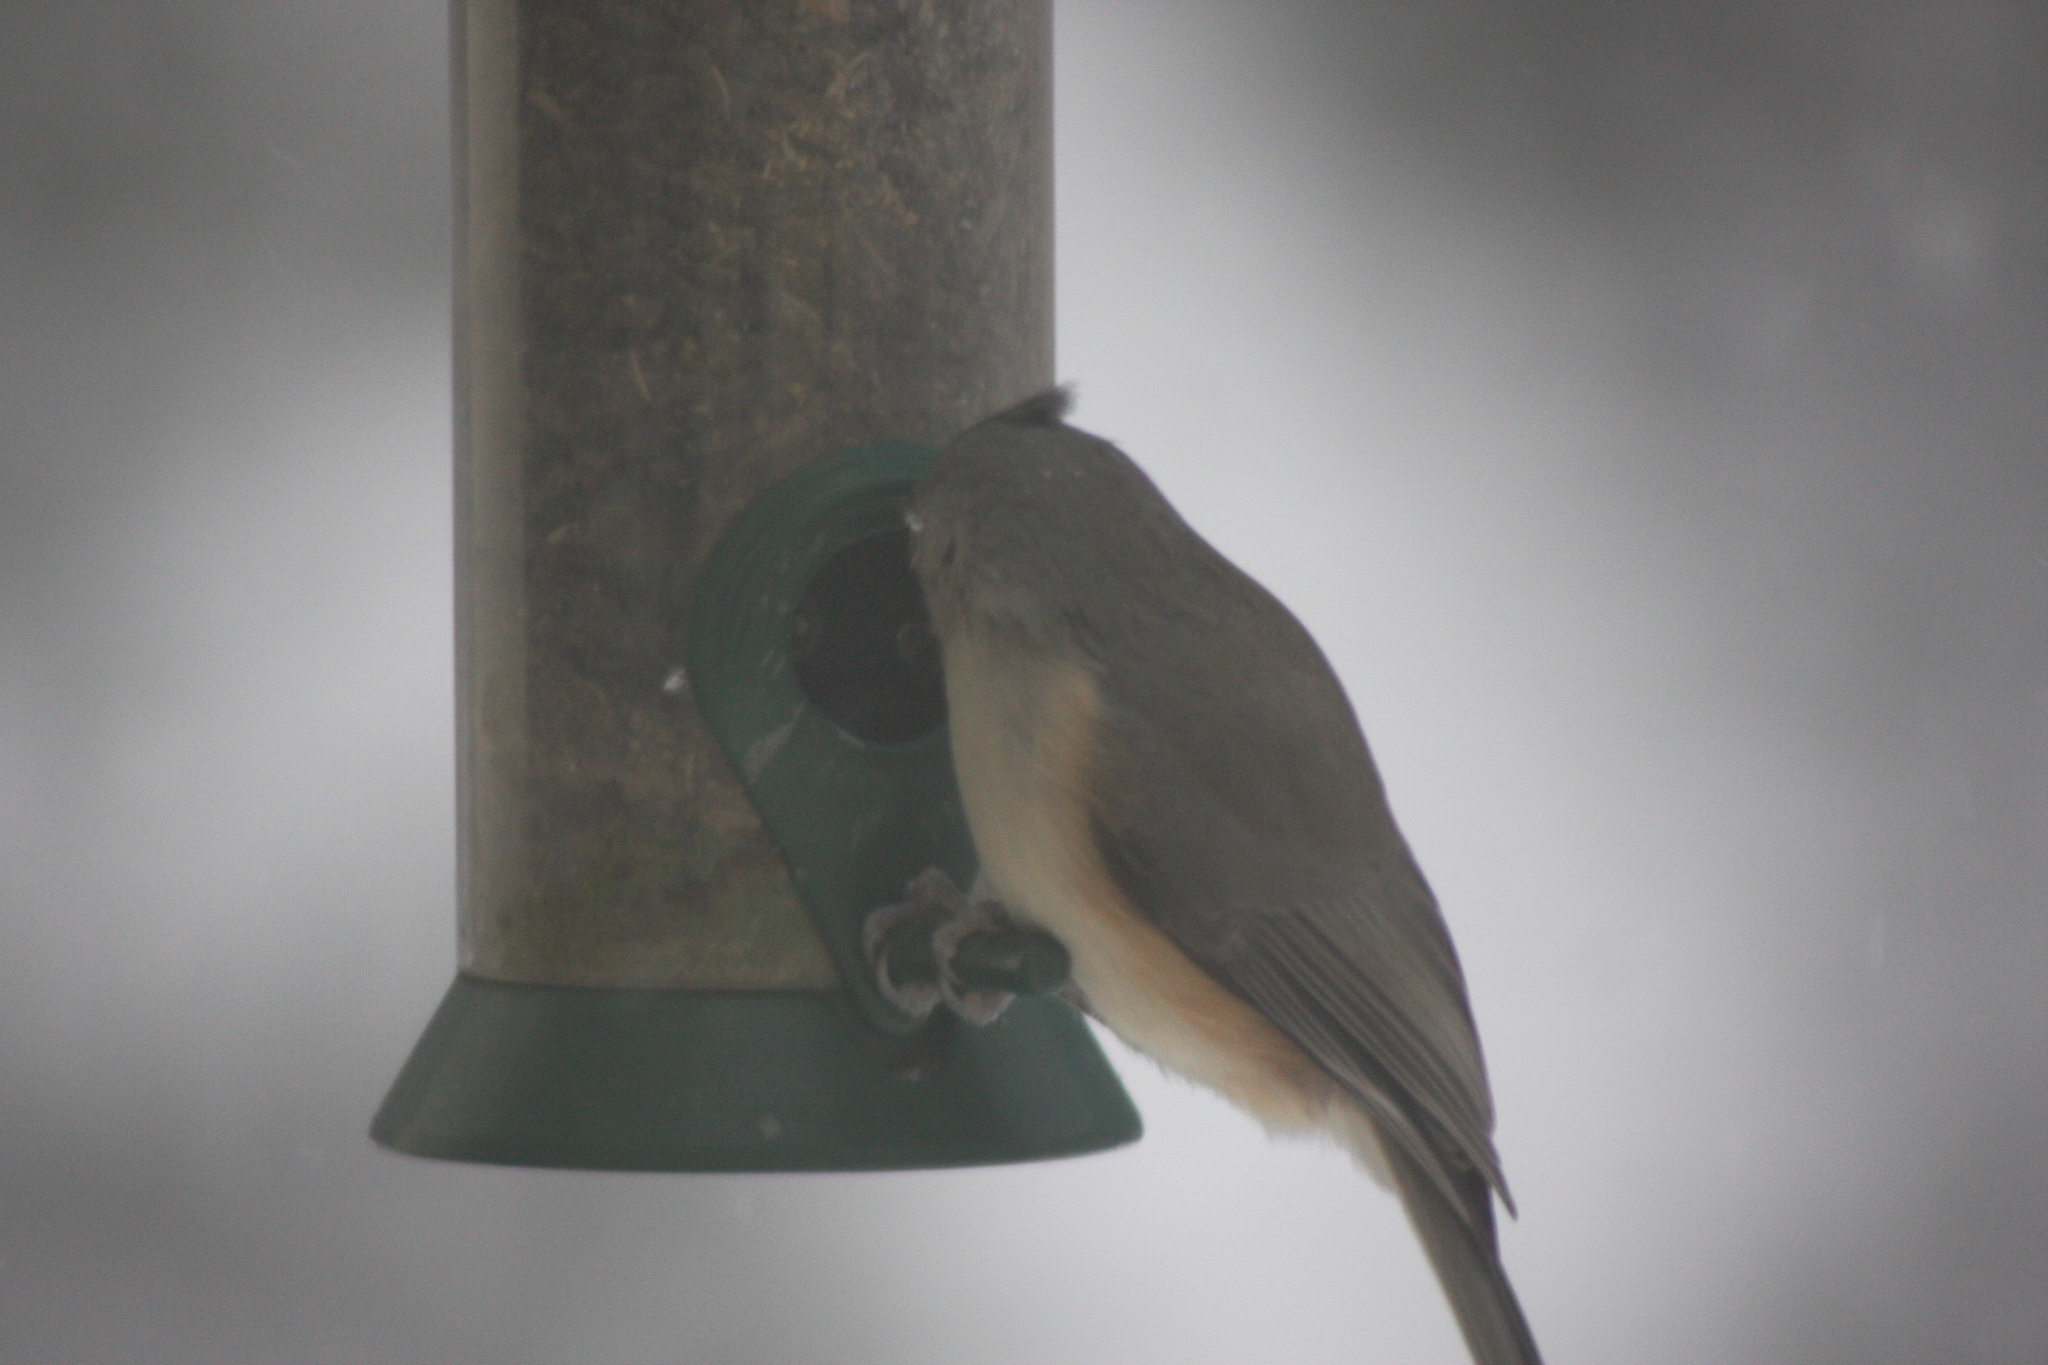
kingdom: Animalia
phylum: Chordata
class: Aves
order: Passeriformes
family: Paridae
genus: Baeolophus
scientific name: Baeolophus bicolor
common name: Tufted titmouse
